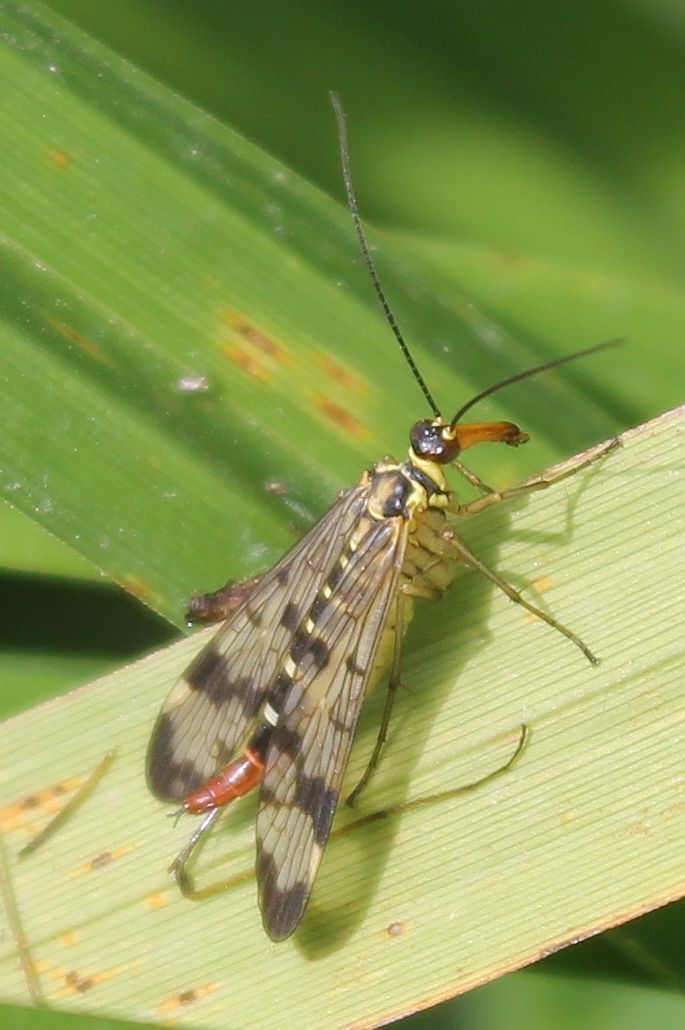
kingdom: Animalia
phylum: Arthropoda
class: Insecta
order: Mecoptera
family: Panorpidae
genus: Panorpa
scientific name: Panorpa communis
